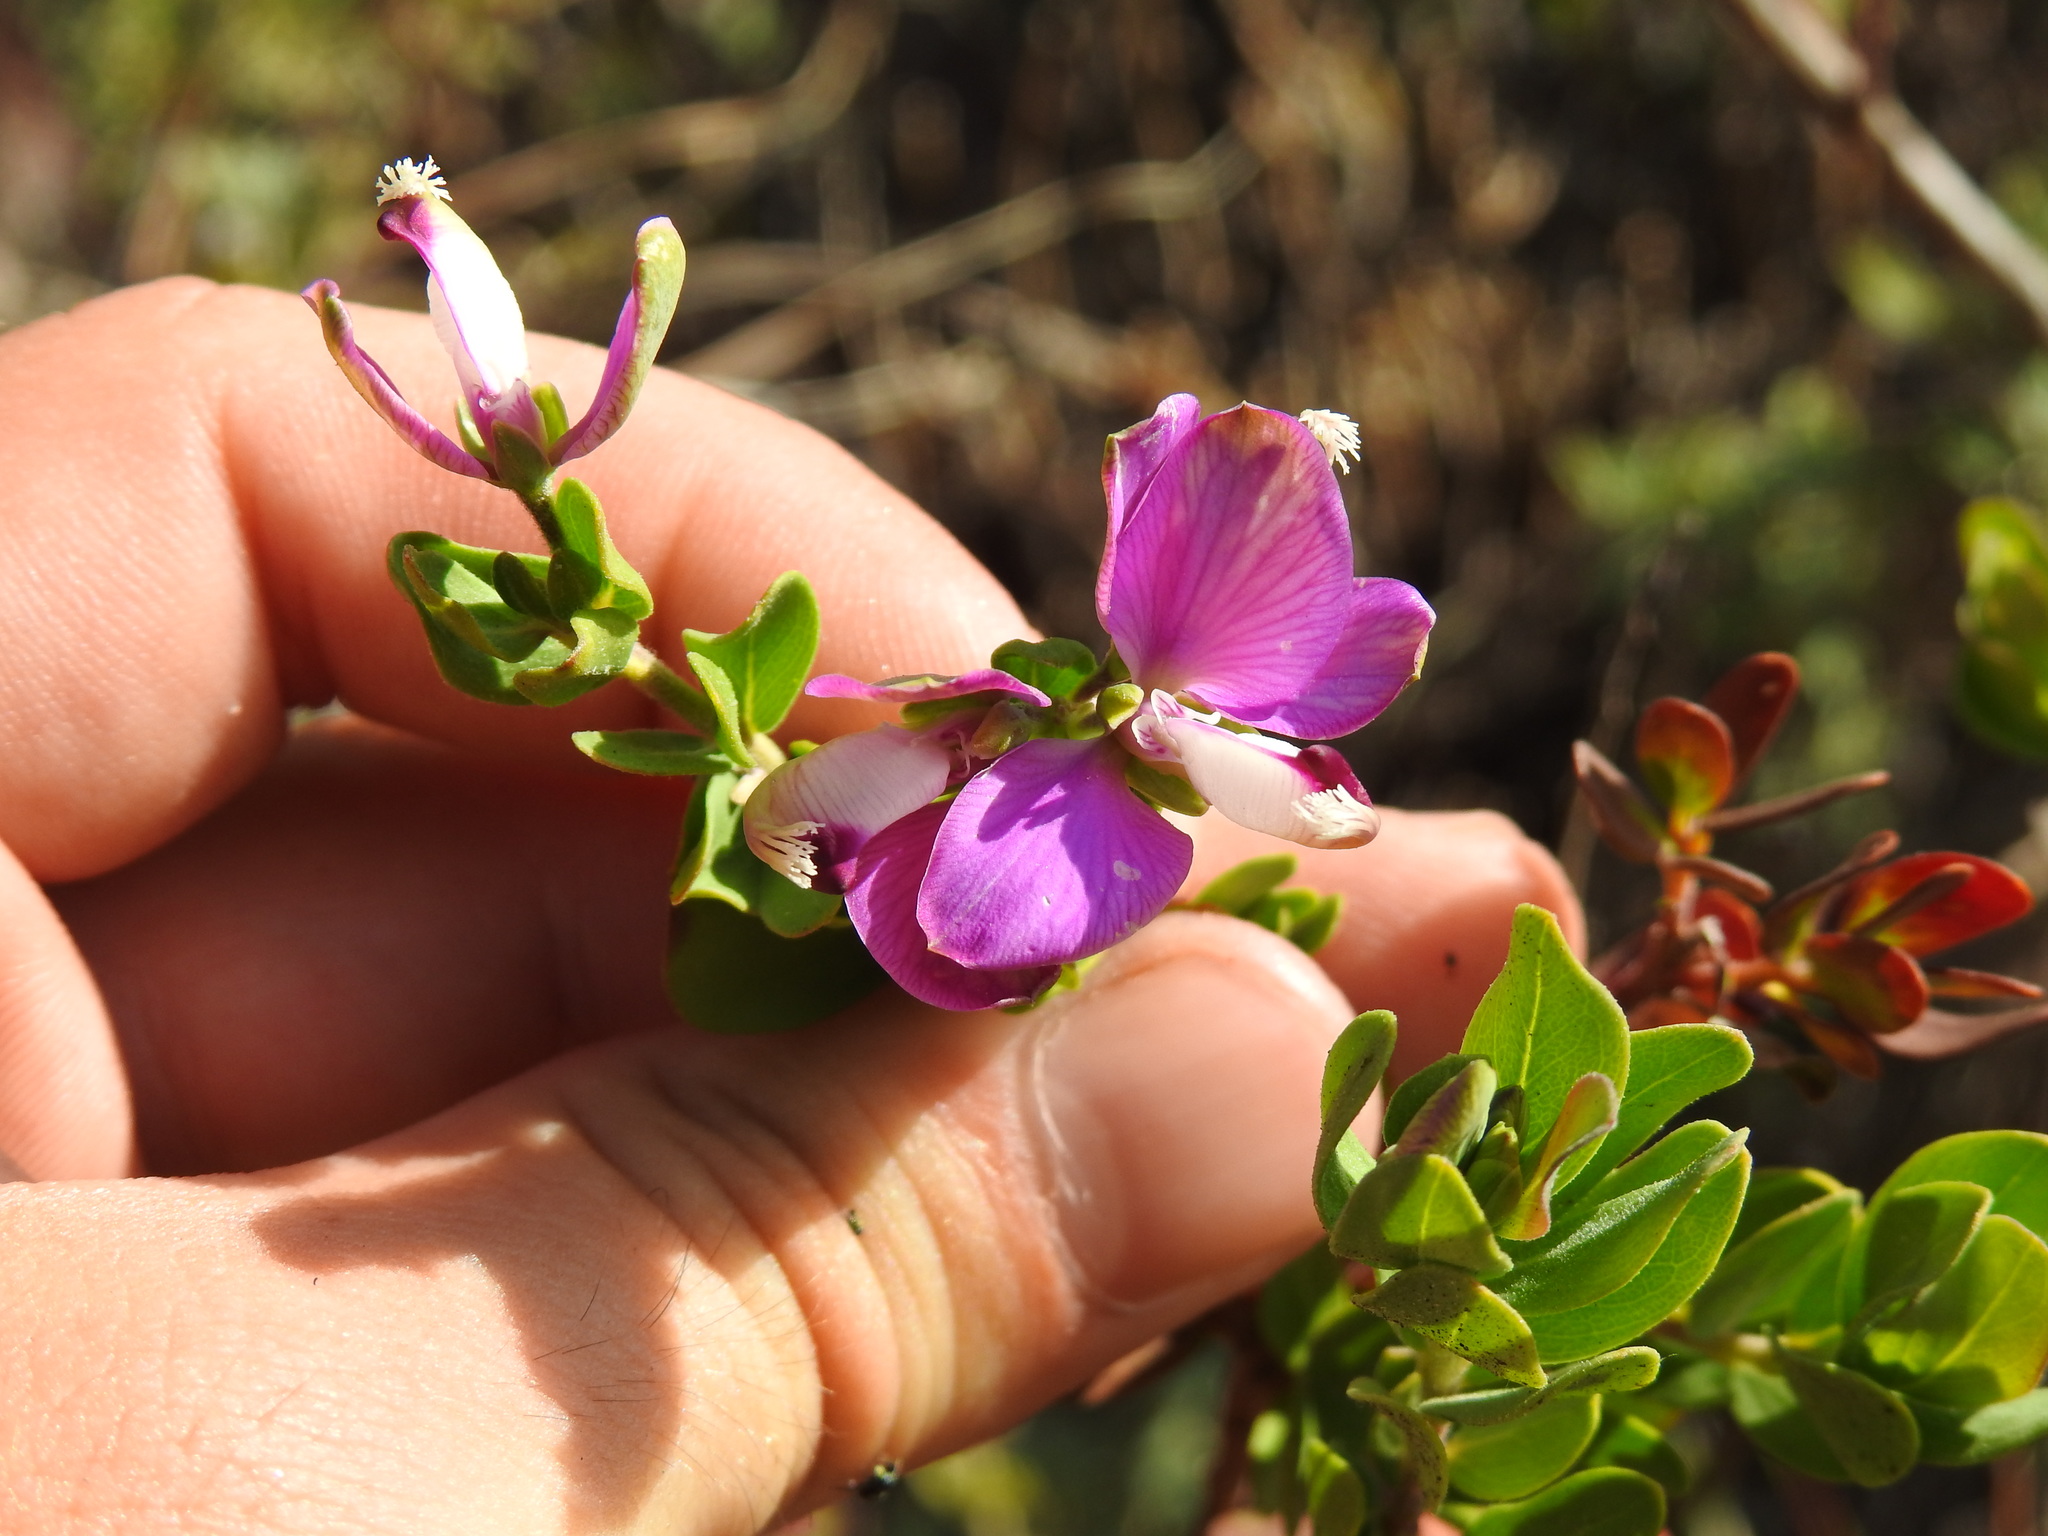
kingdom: Plantae
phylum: Tracheophyta
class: Magnoliopsida
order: Fabales
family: Polygalaceae
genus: Polygala
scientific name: Polygala myrtifolia
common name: Myrtle-leaf milkwort
